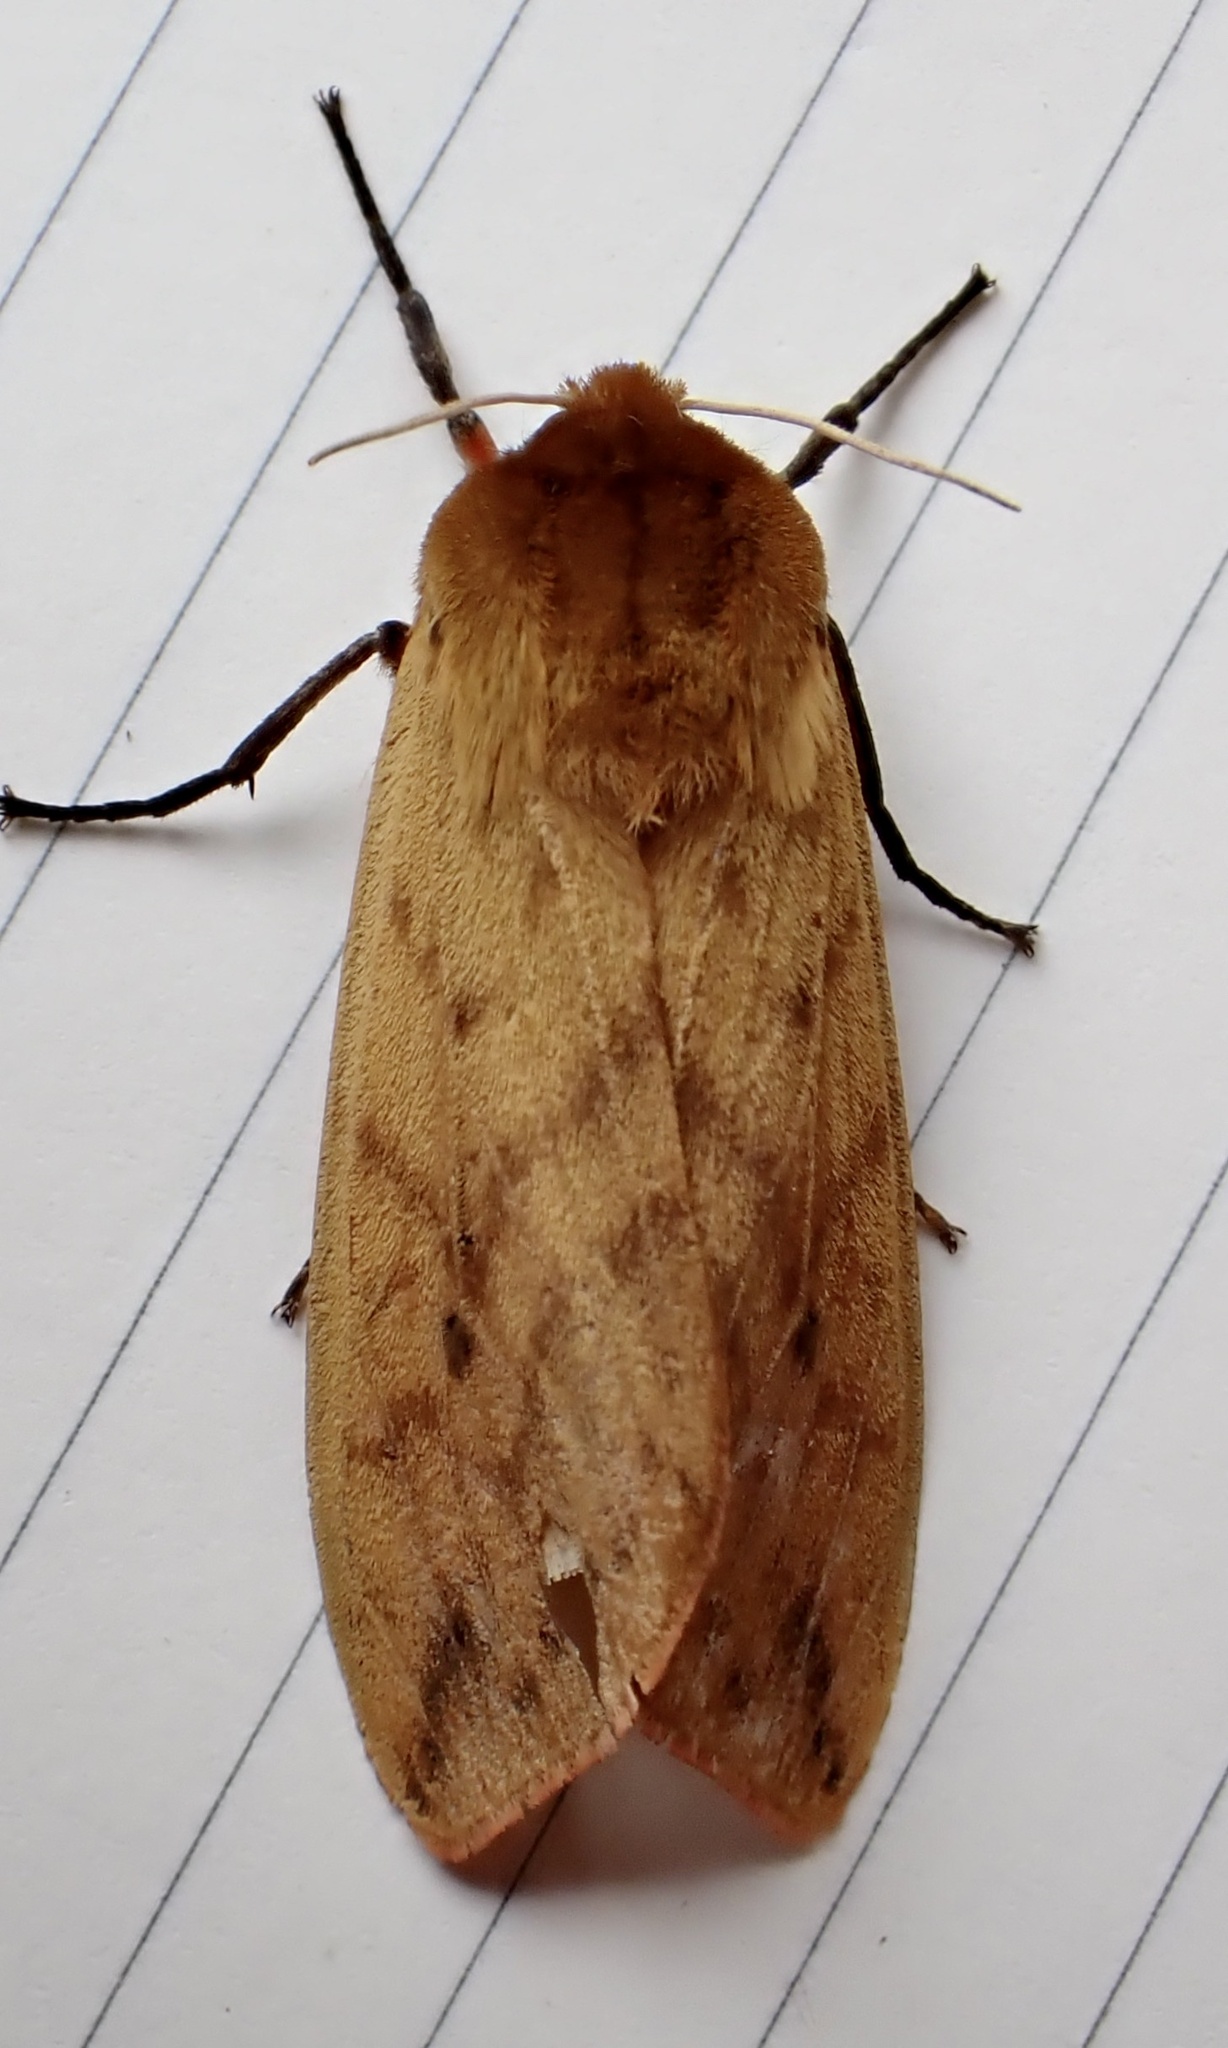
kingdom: Animalia
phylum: Arthropoda
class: Insecta
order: Lepidoptera
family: Erebidae
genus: Pyrrharctia
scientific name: Pyrrharctia isabella
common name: Isabella tiger moth
